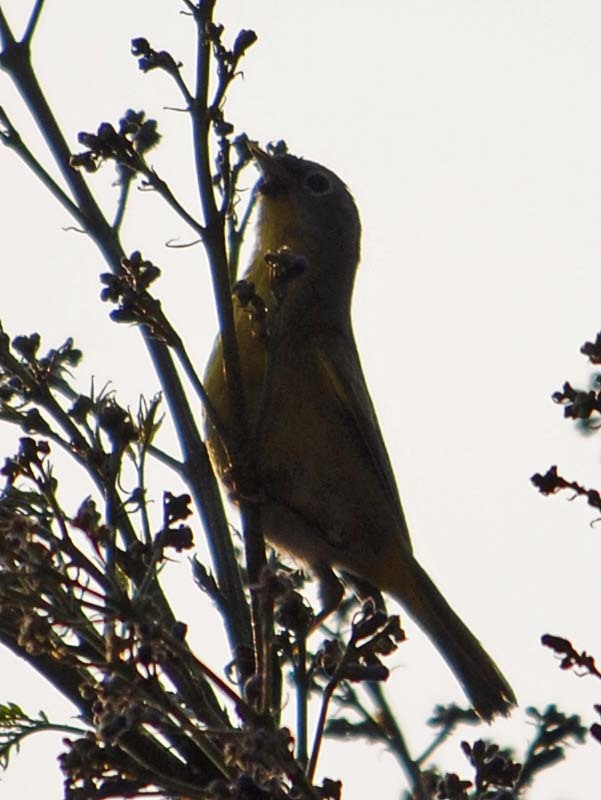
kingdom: Animalia
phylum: Chordata
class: Aves
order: Passeriformes
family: Parulidae
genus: Leiothlypis
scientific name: Leiothlypis ruficapilla
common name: Nashville warbler
